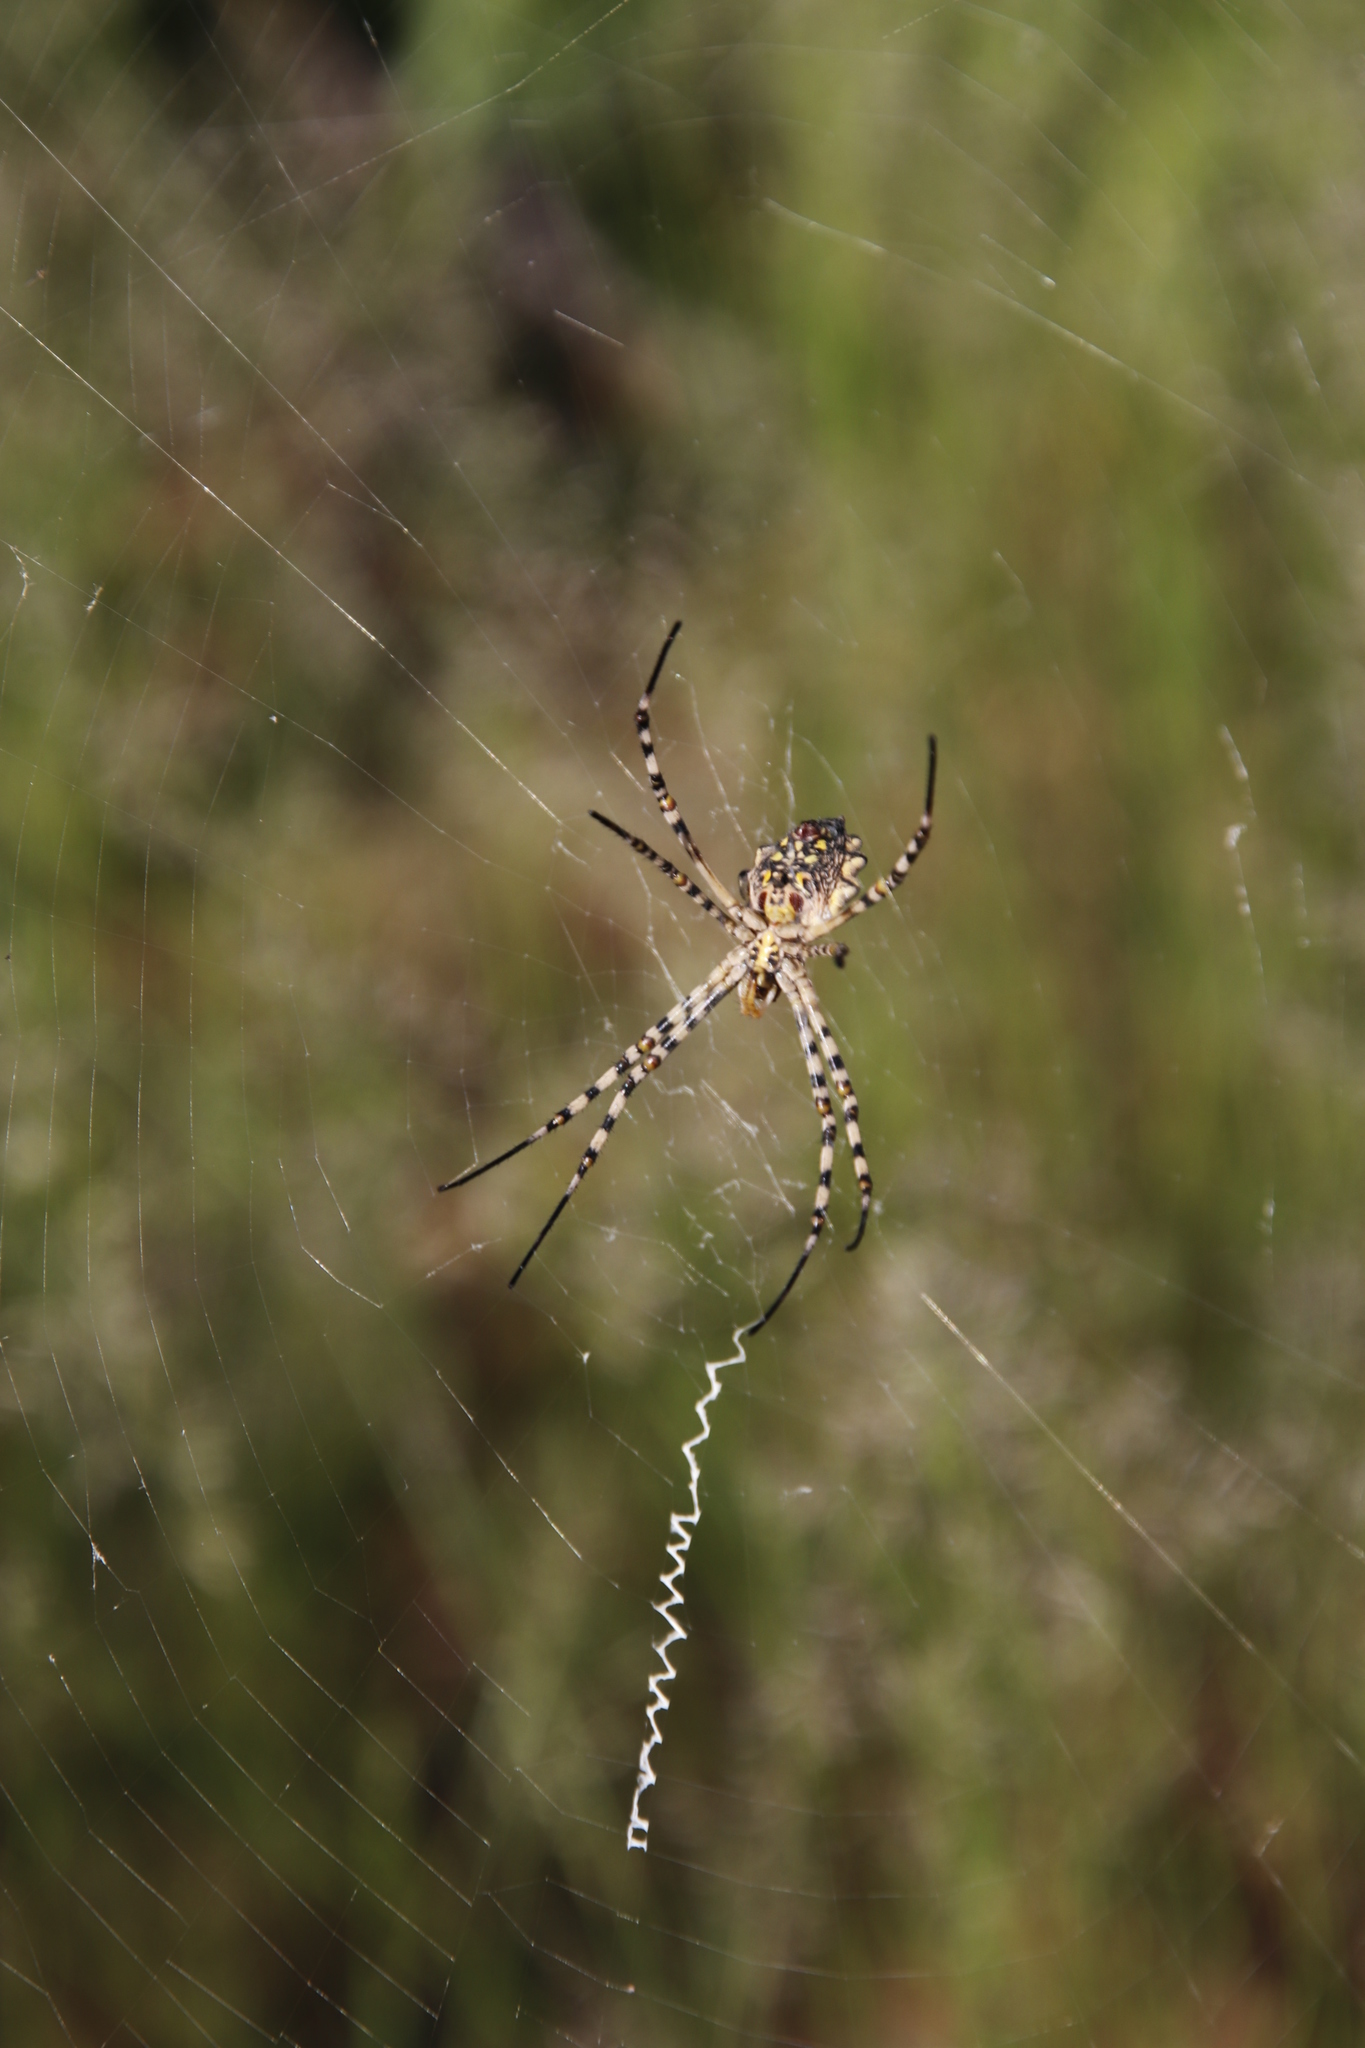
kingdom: Animalia
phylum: Arthropoda
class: Arachnida
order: Araneae
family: Araneidae
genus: Argiope
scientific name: Argiope australis
